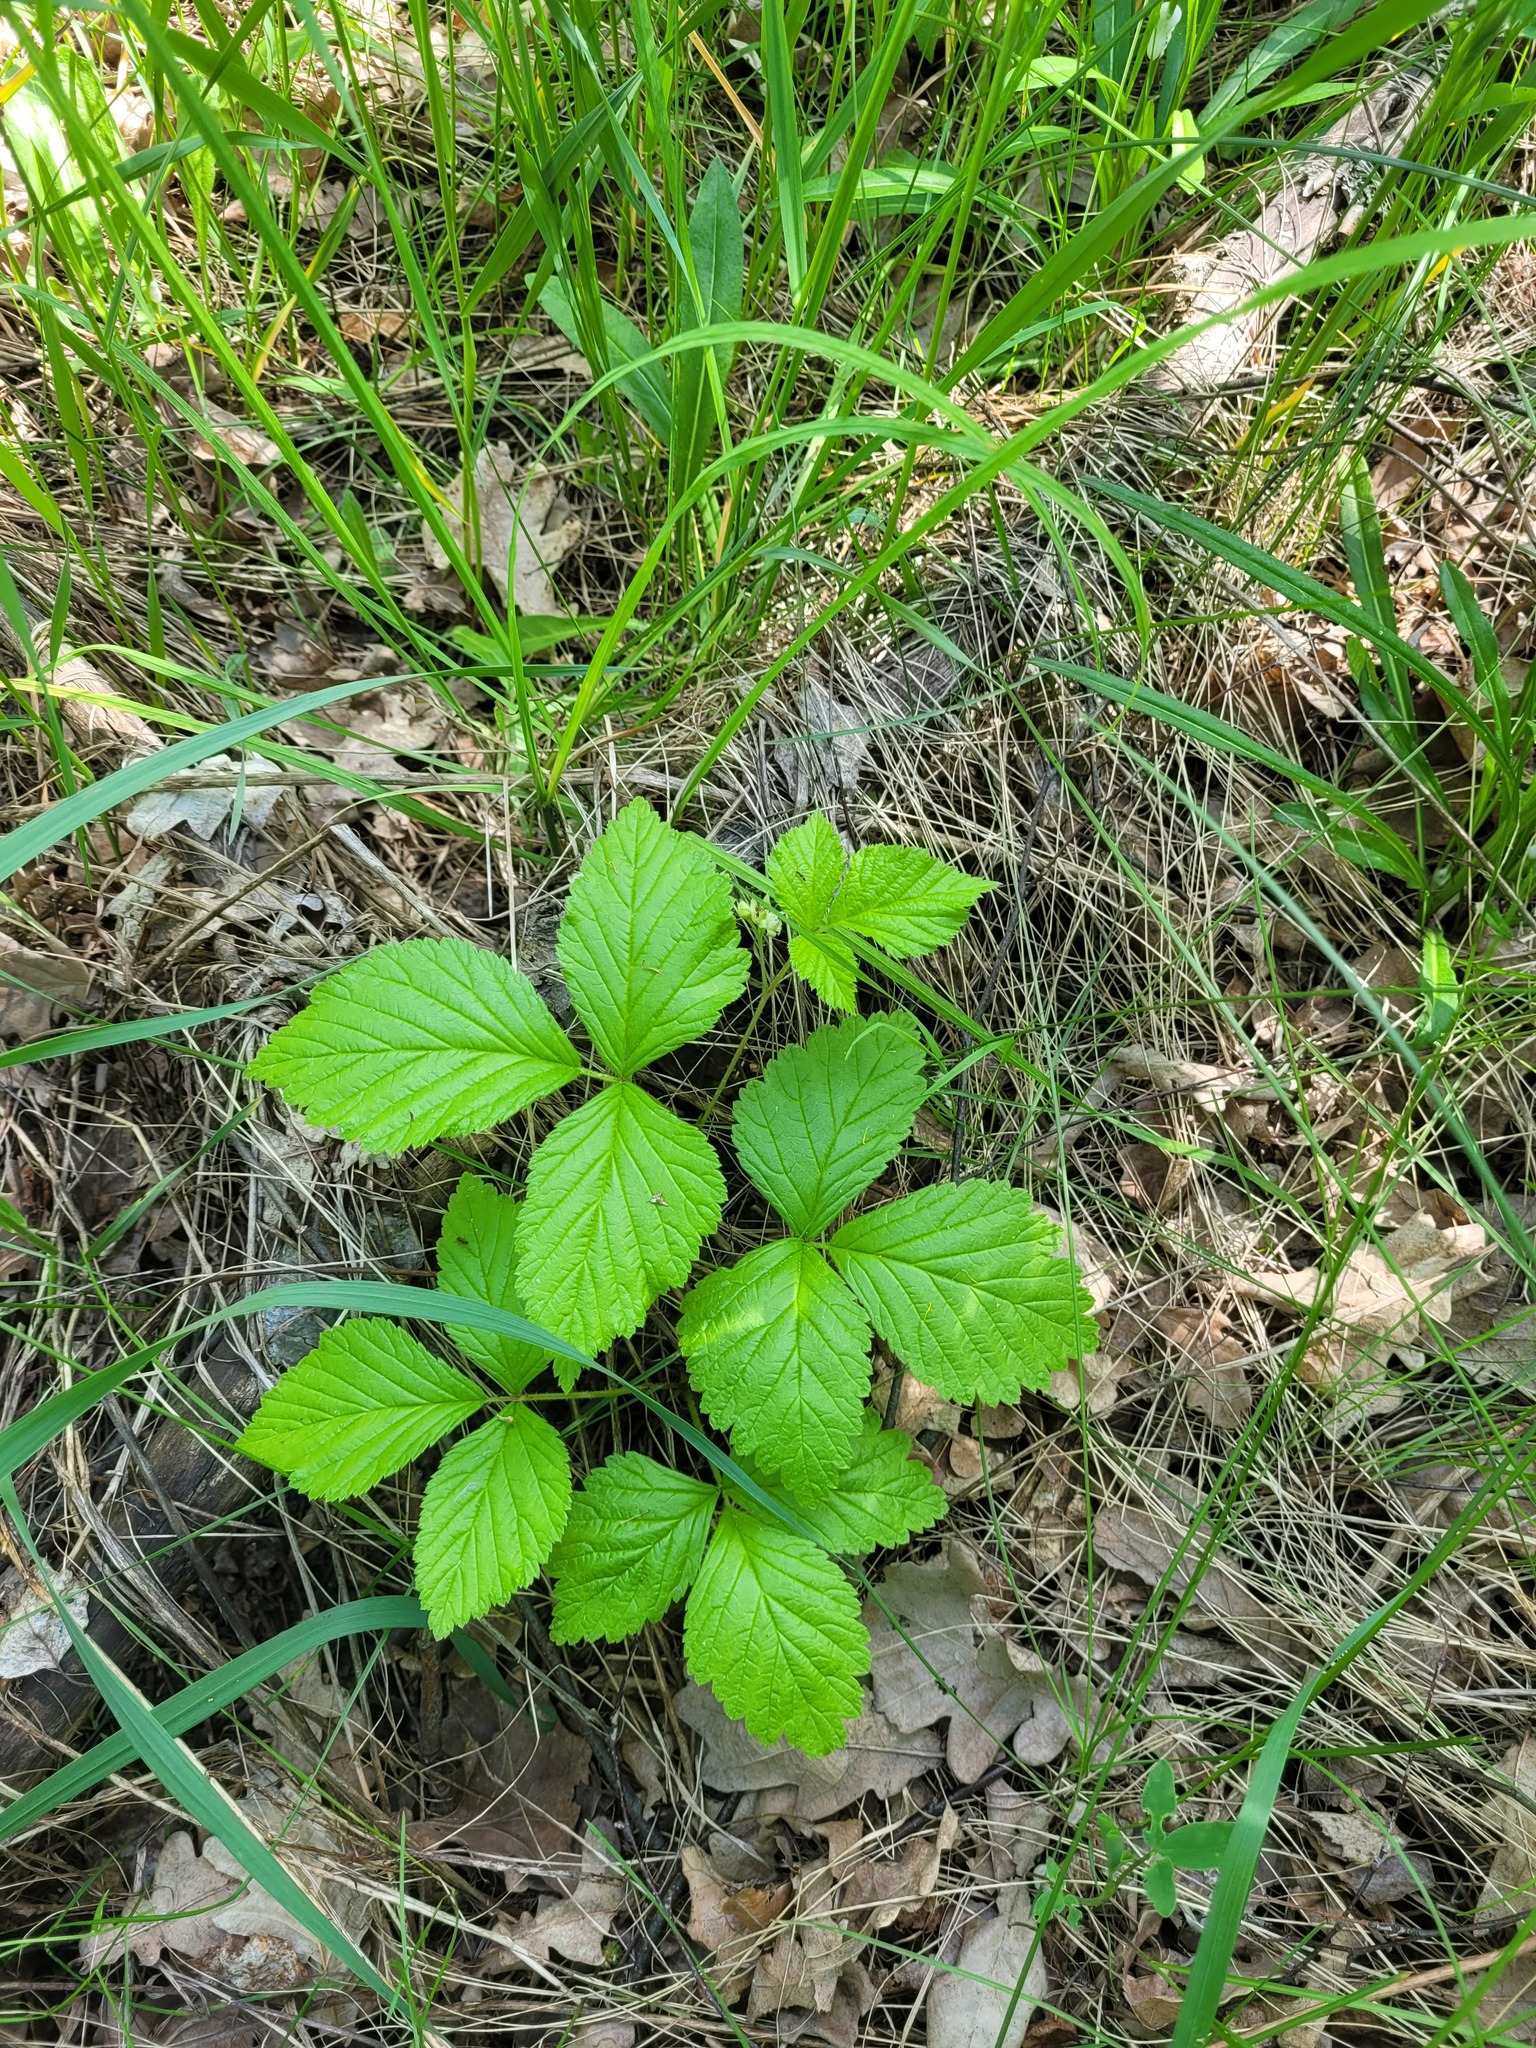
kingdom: Plantae
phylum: Tracheophyta
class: Magnoliopsida
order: Rosales
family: Rosaceae
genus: Rubus
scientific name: Rubus saxatilis
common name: Stone bramble
